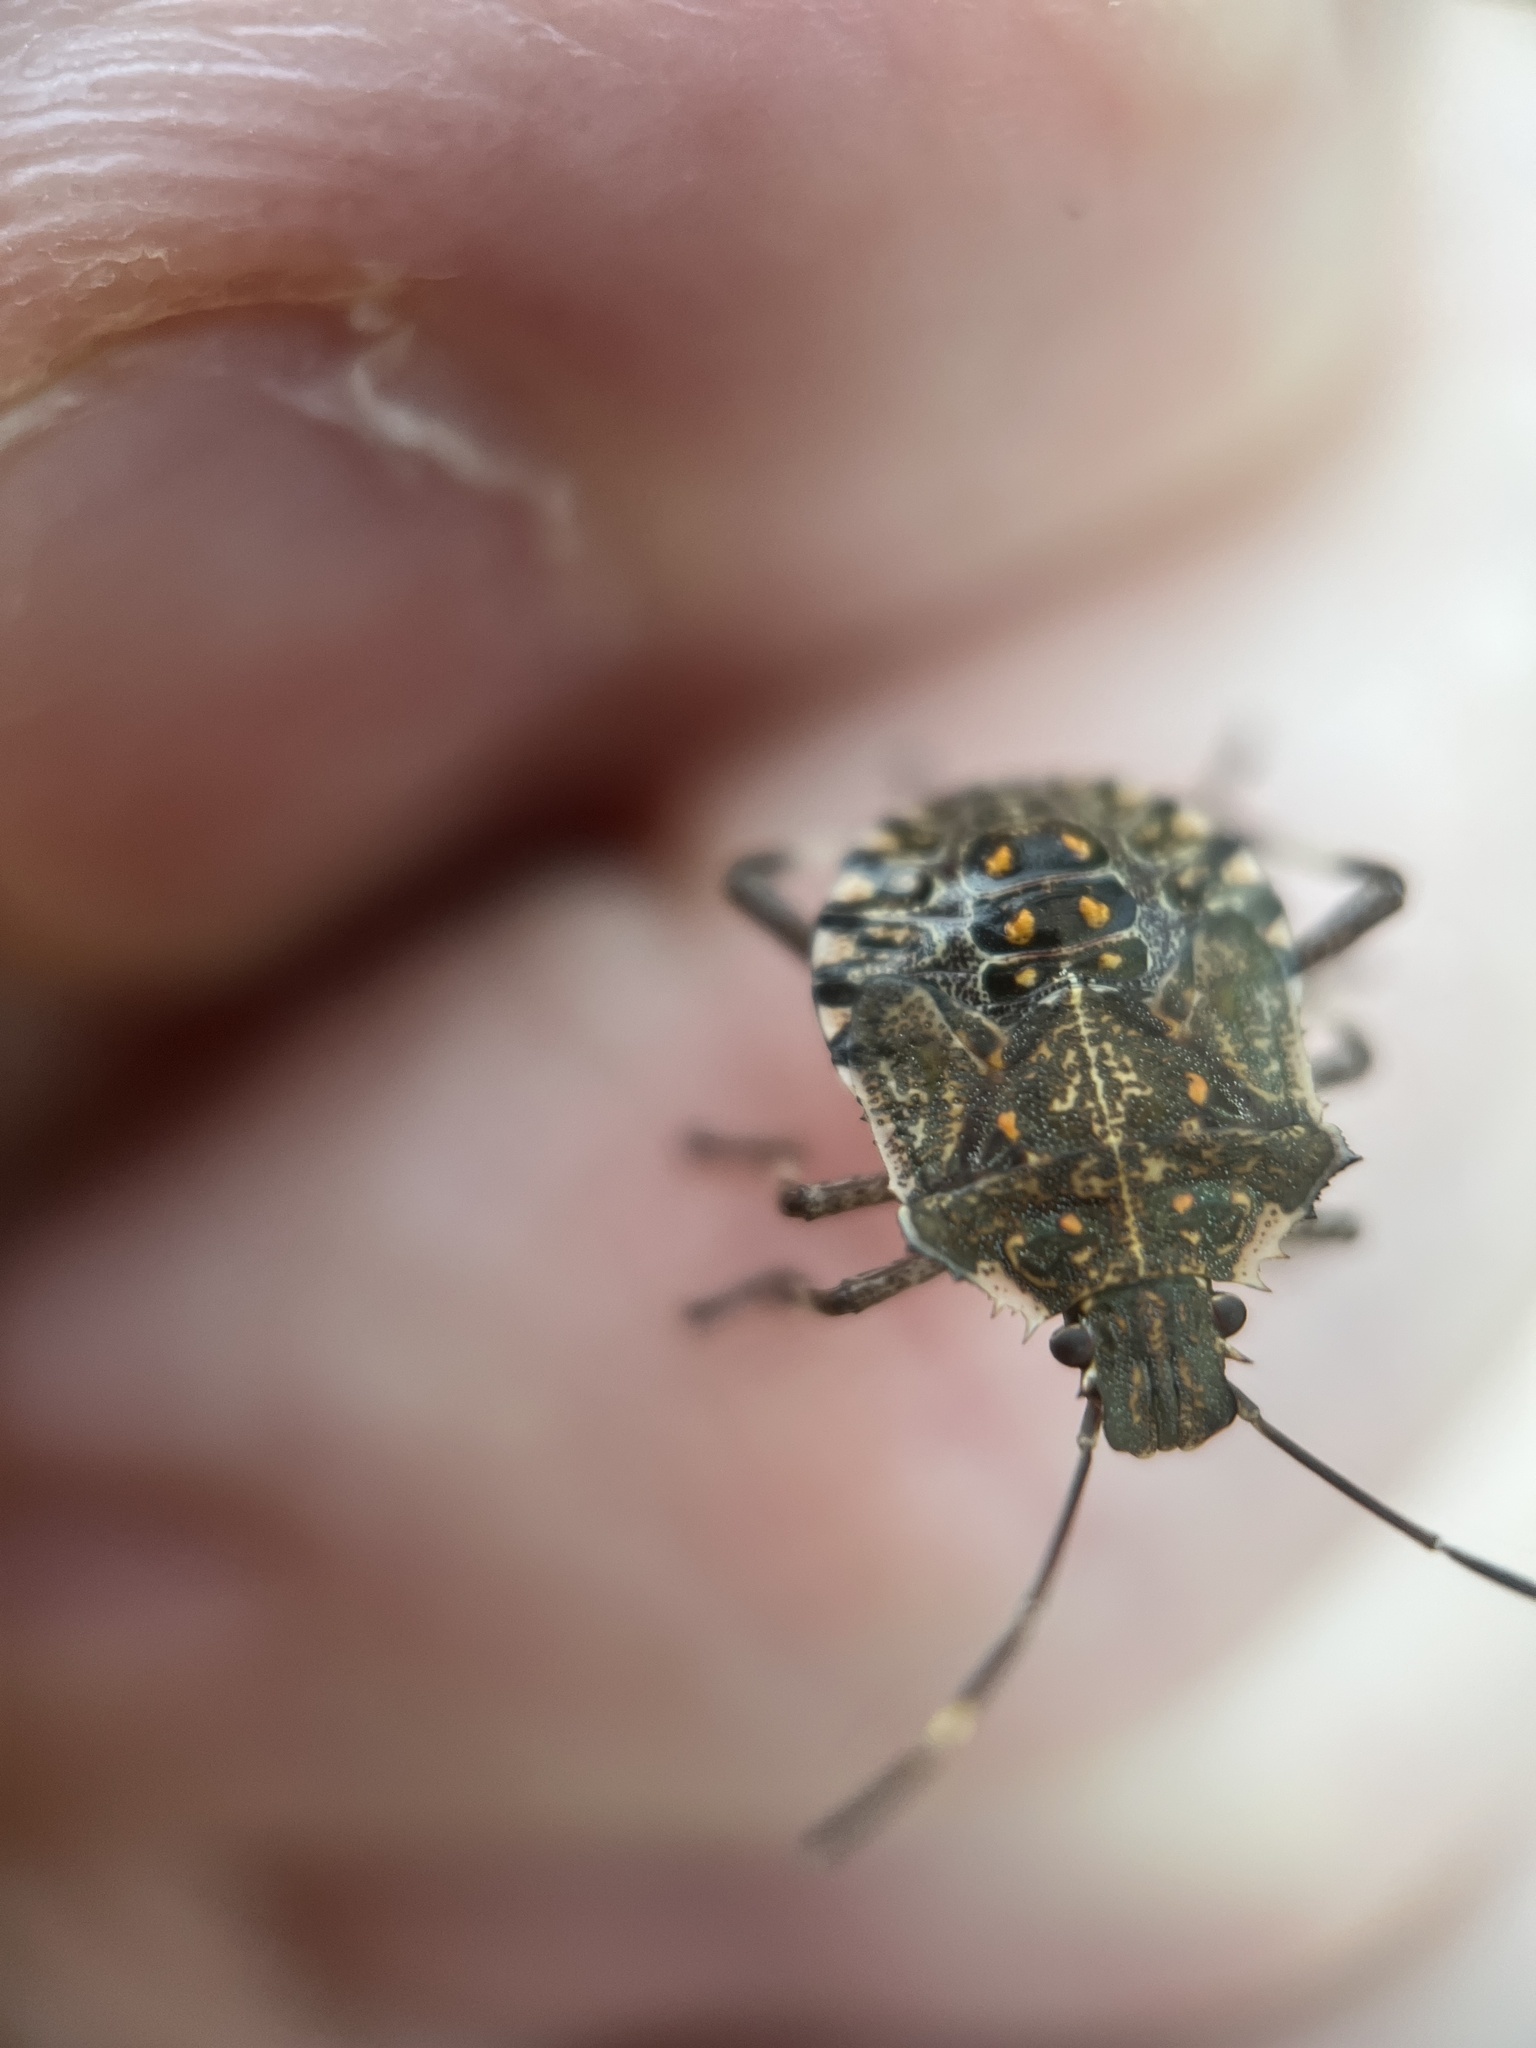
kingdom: Animalia
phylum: Arthropoda
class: Insecta
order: Hemiptera
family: Pentatomidae
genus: Halyomorpha
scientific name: Halyomorpha halys
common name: Brown marmorated stink bug
